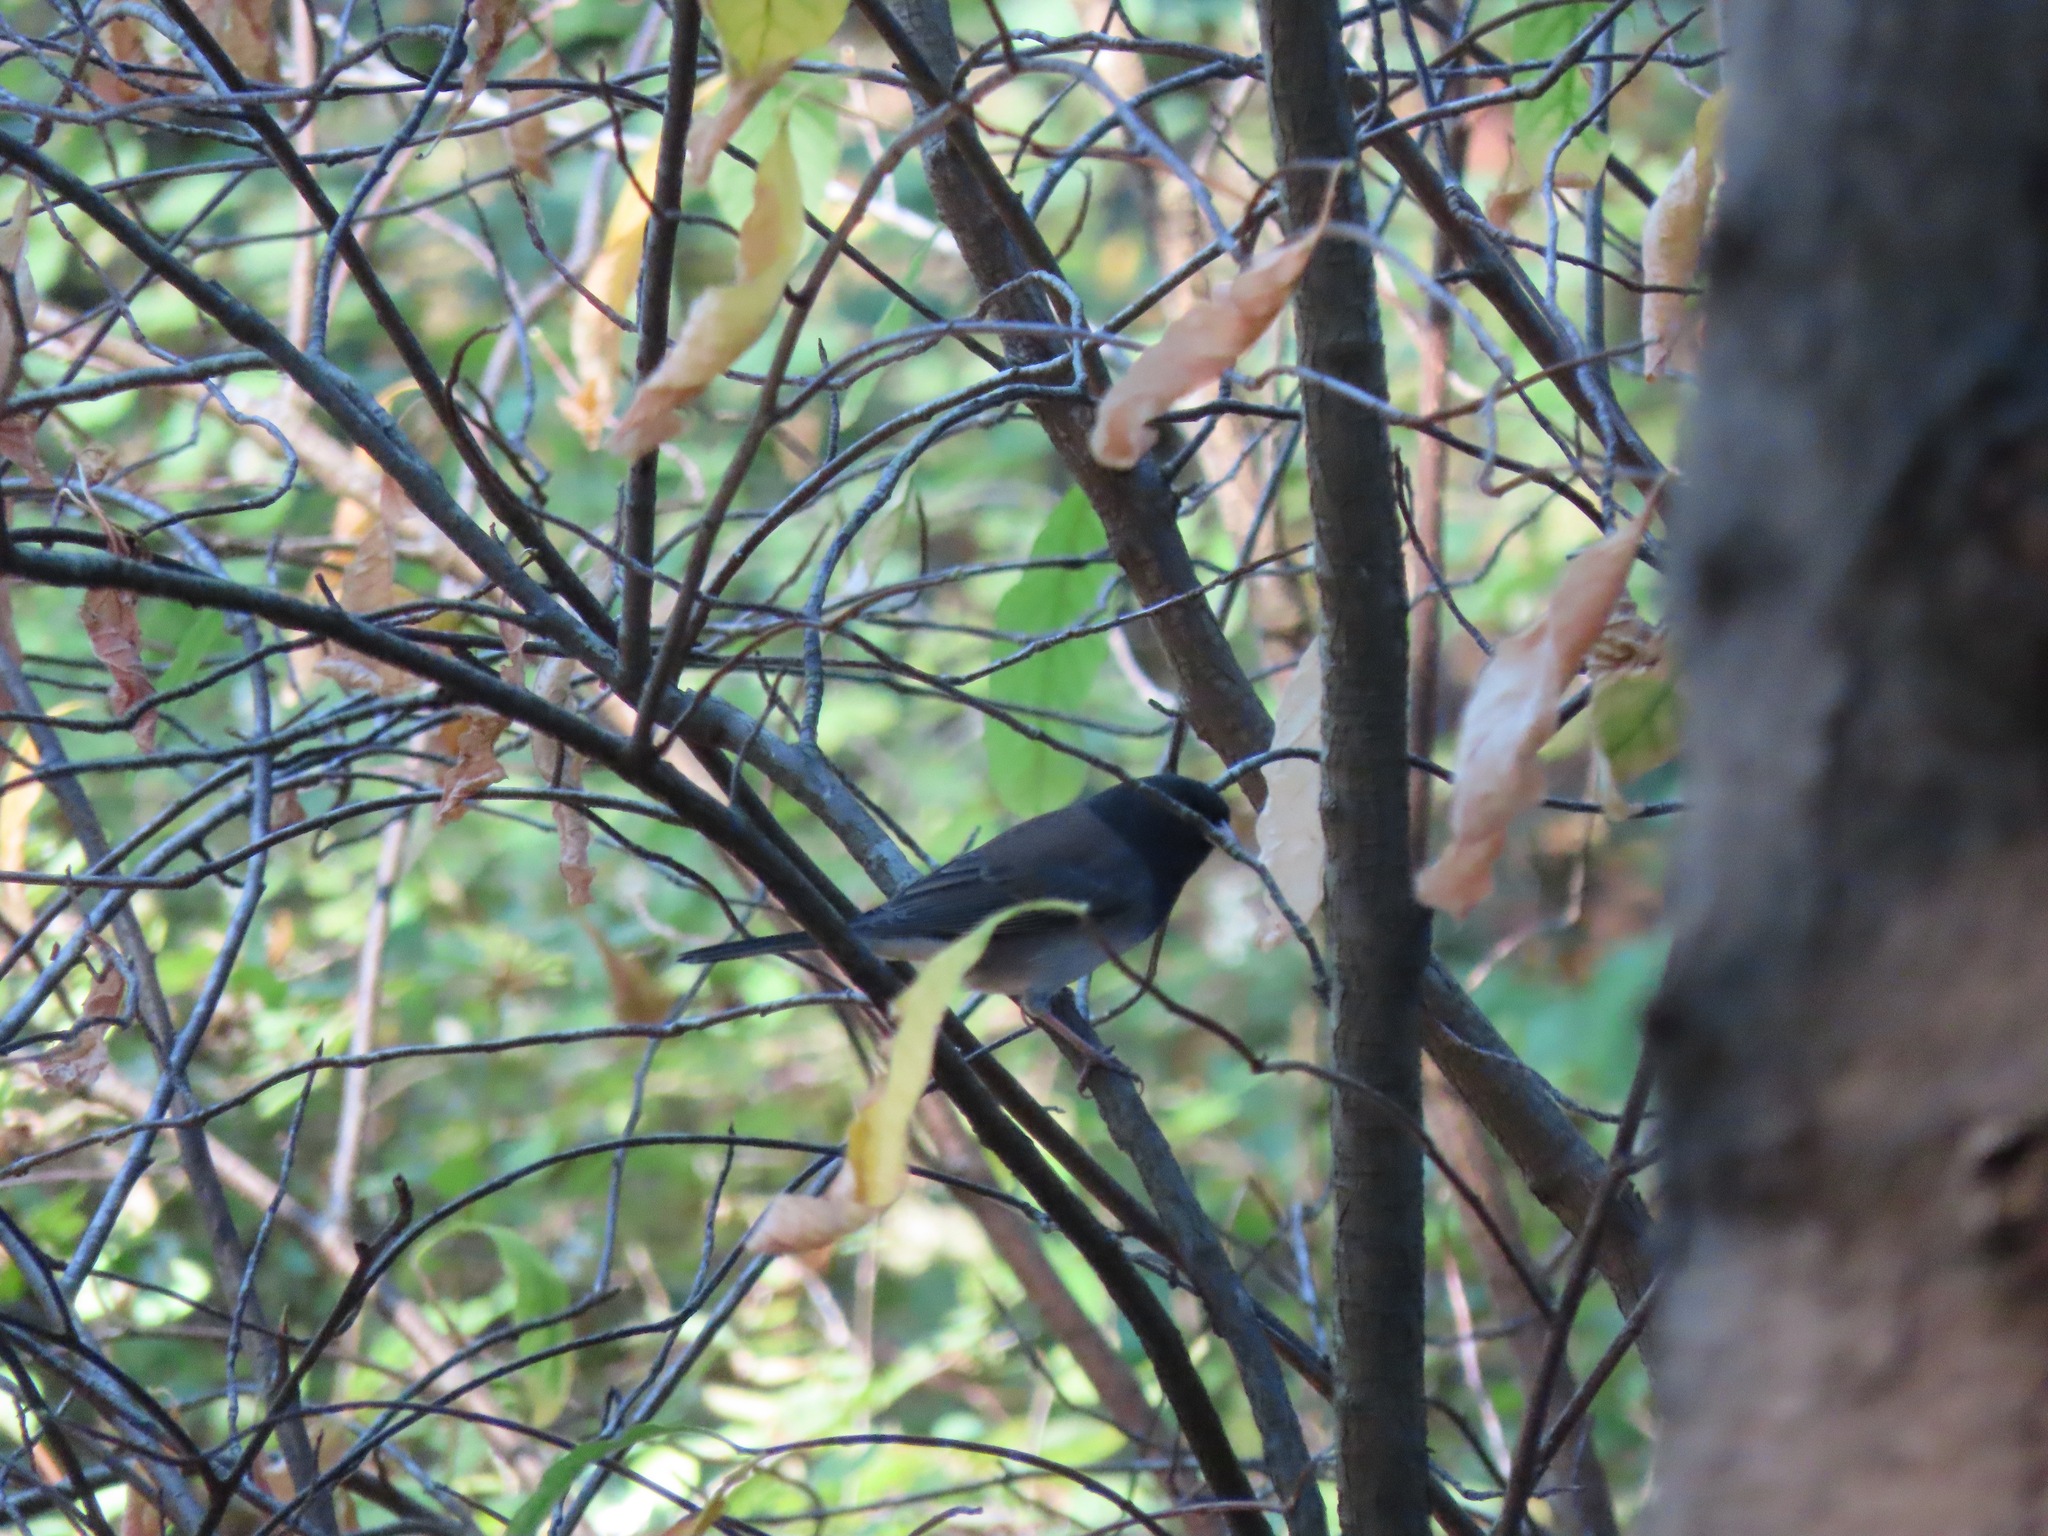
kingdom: Animalia
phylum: Chordata
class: Aves
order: Passeriformes
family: Passerellidae
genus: Junco
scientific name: Junco hyemalis
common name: Dark-eyed junco
